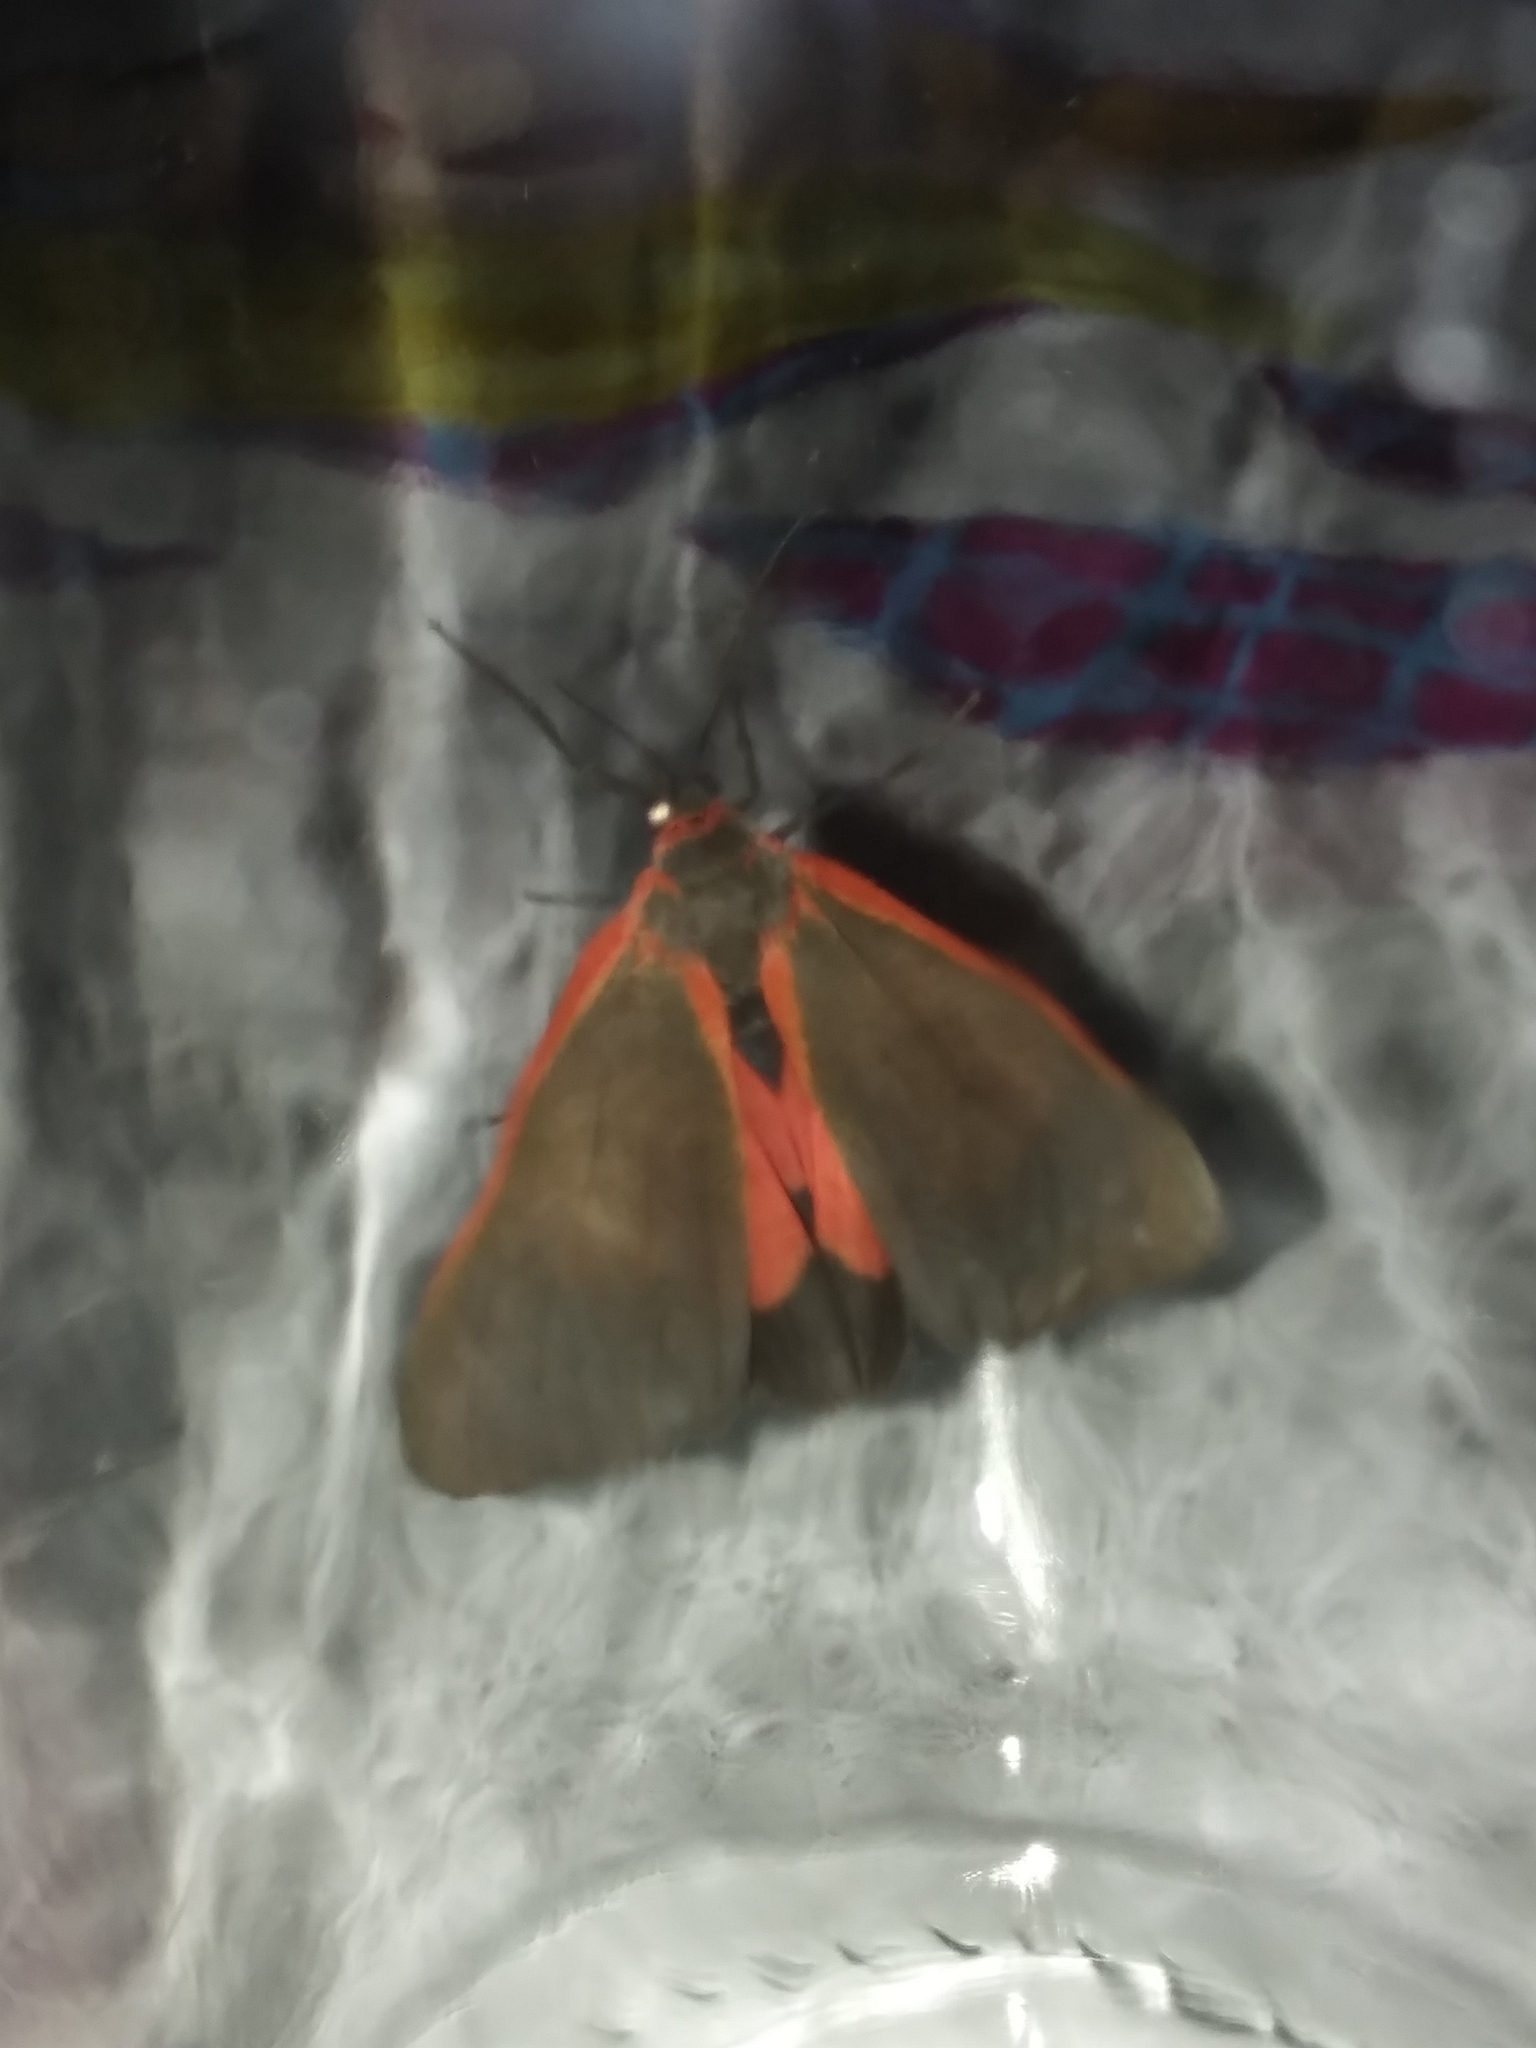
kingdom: Animalia
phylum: Arthropoda
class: Insecta
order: Lepidoptera
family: Erebidae
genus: Virbia
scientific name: Virbia semirosea
